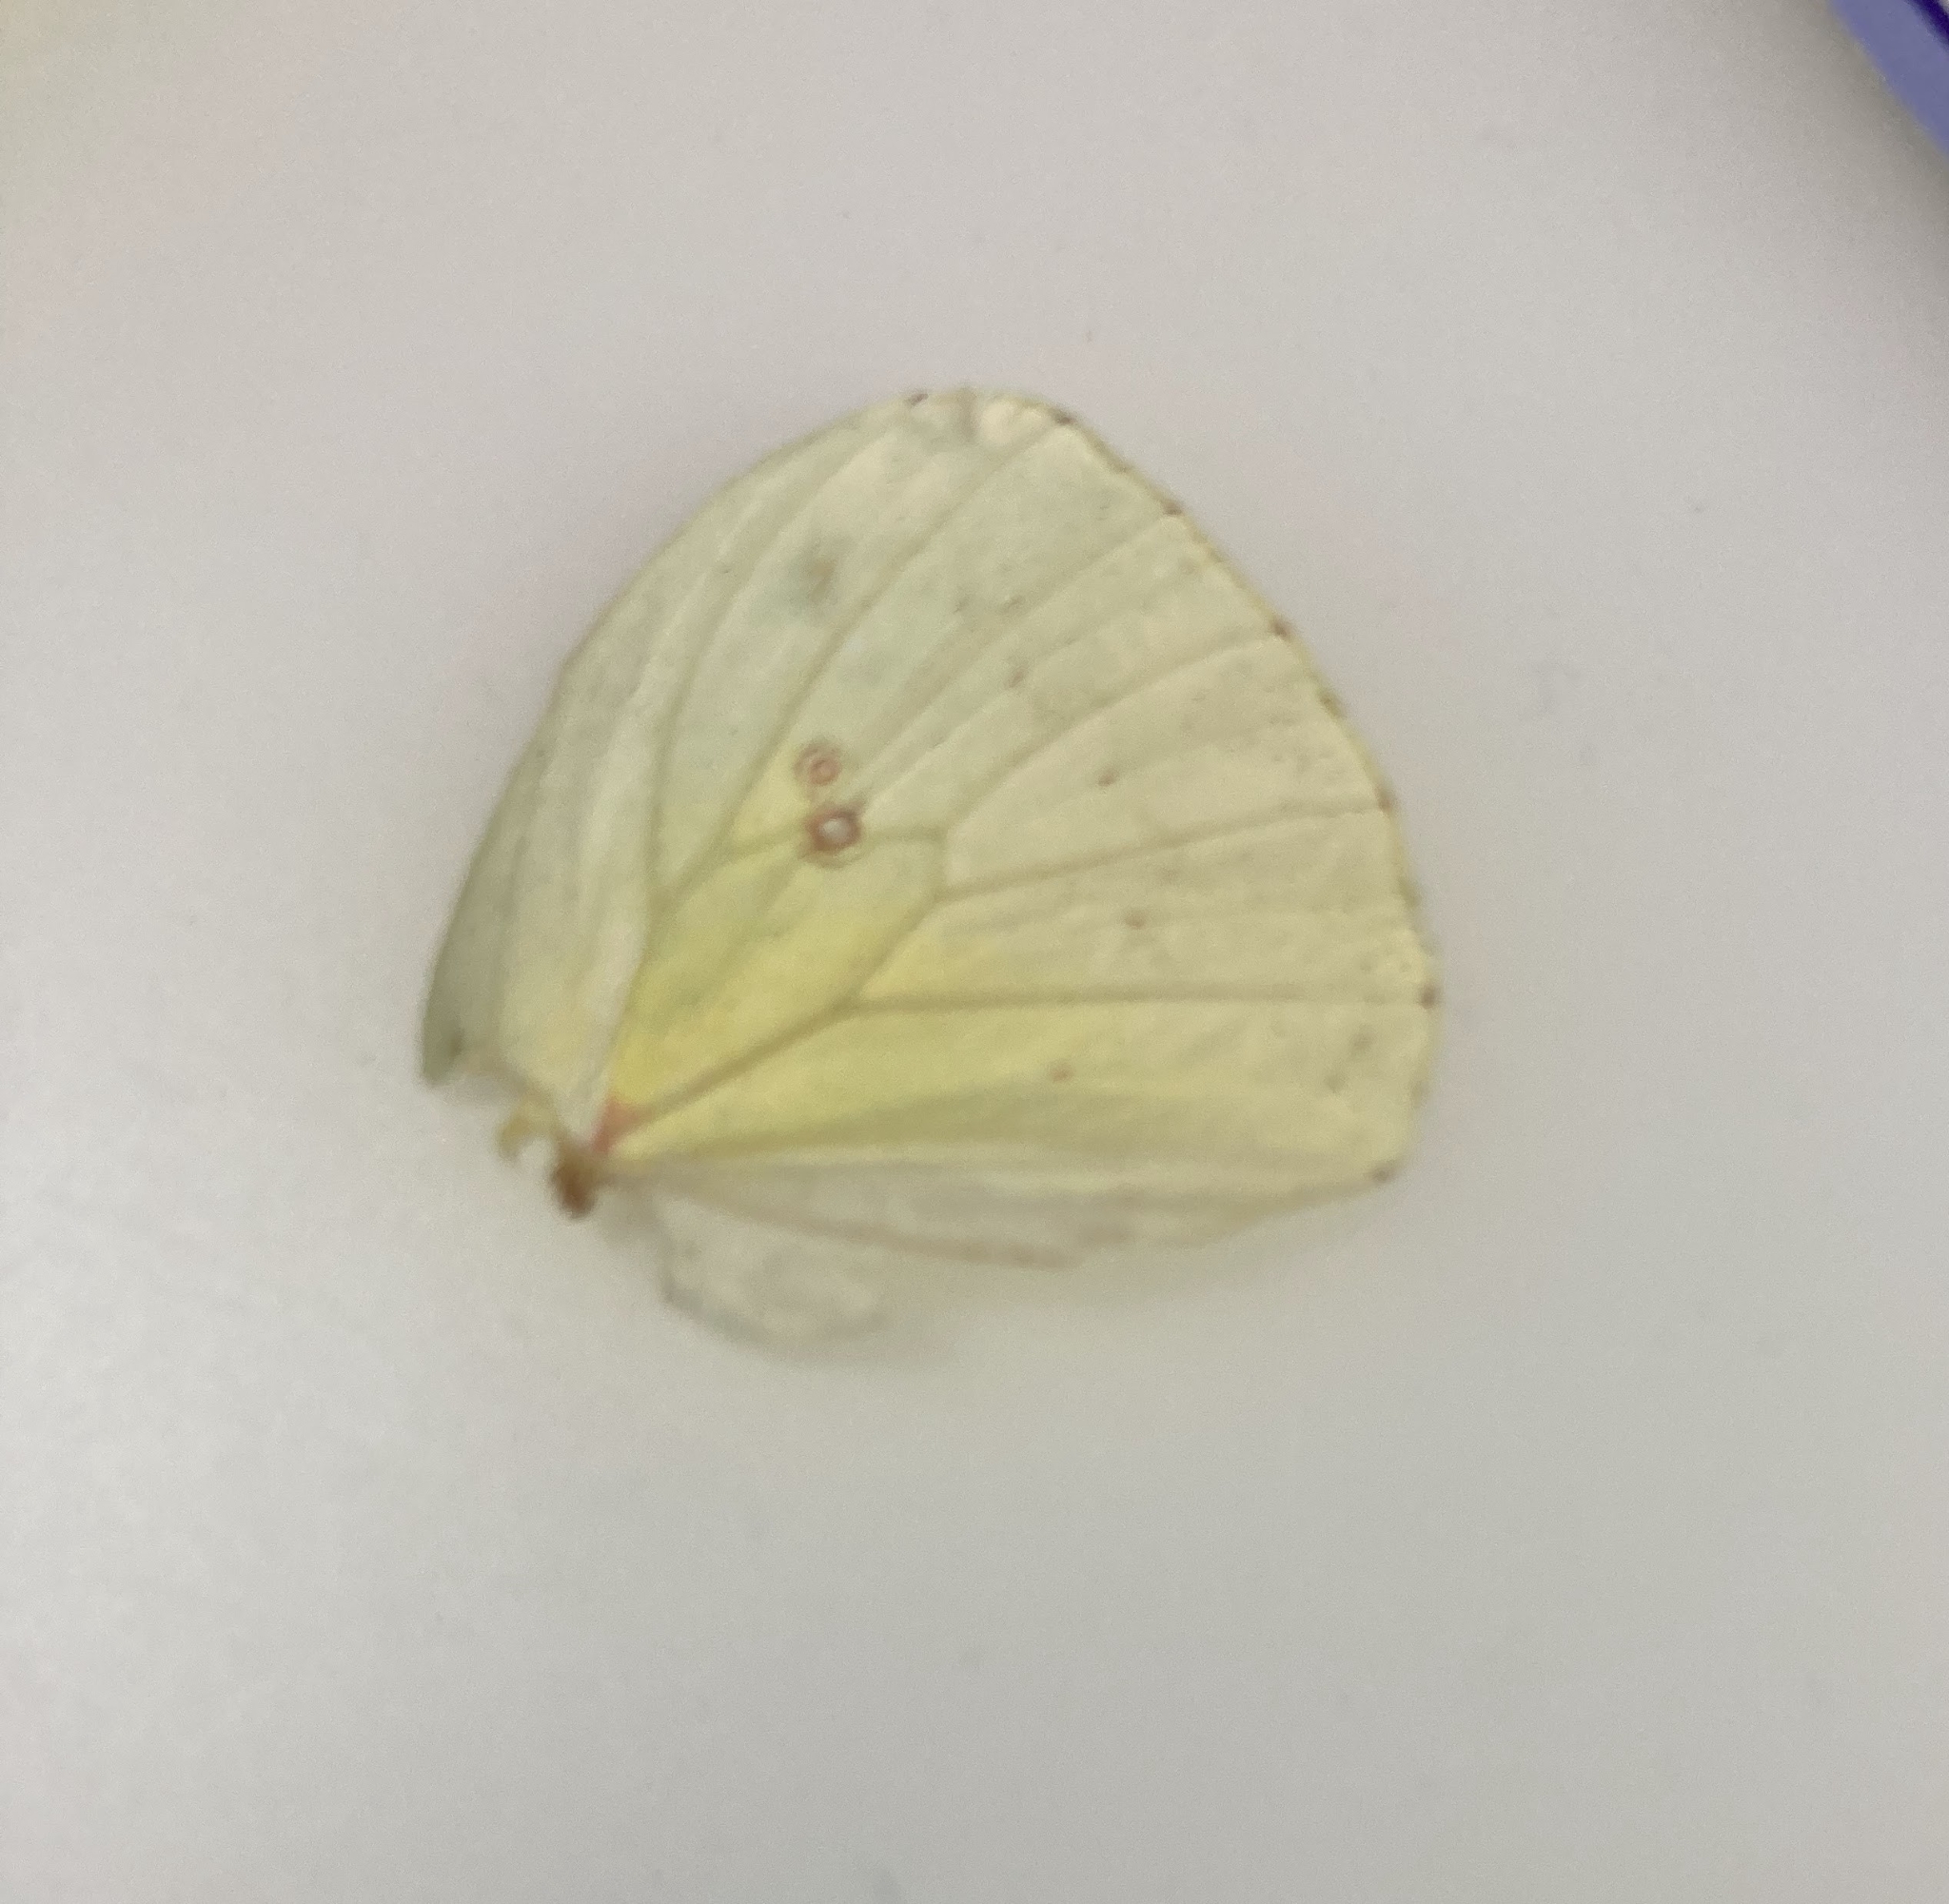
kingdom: Animalia
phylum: Arthropoda
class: Insecta
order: Lepidoptera
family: Pieridae
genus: Catopsilia
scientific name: Catopsilia pomona
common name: Common emigrant
